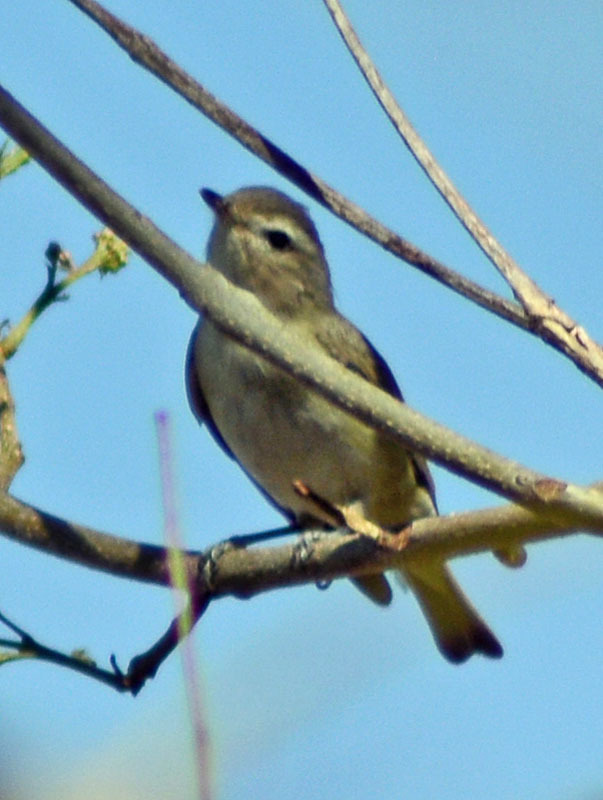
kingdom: Animalia
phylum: Chordata
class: Aves
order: Passeriformes
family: Vireonidae
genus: Vireo
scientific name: Vireo gilvus
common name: Warbling vireo
